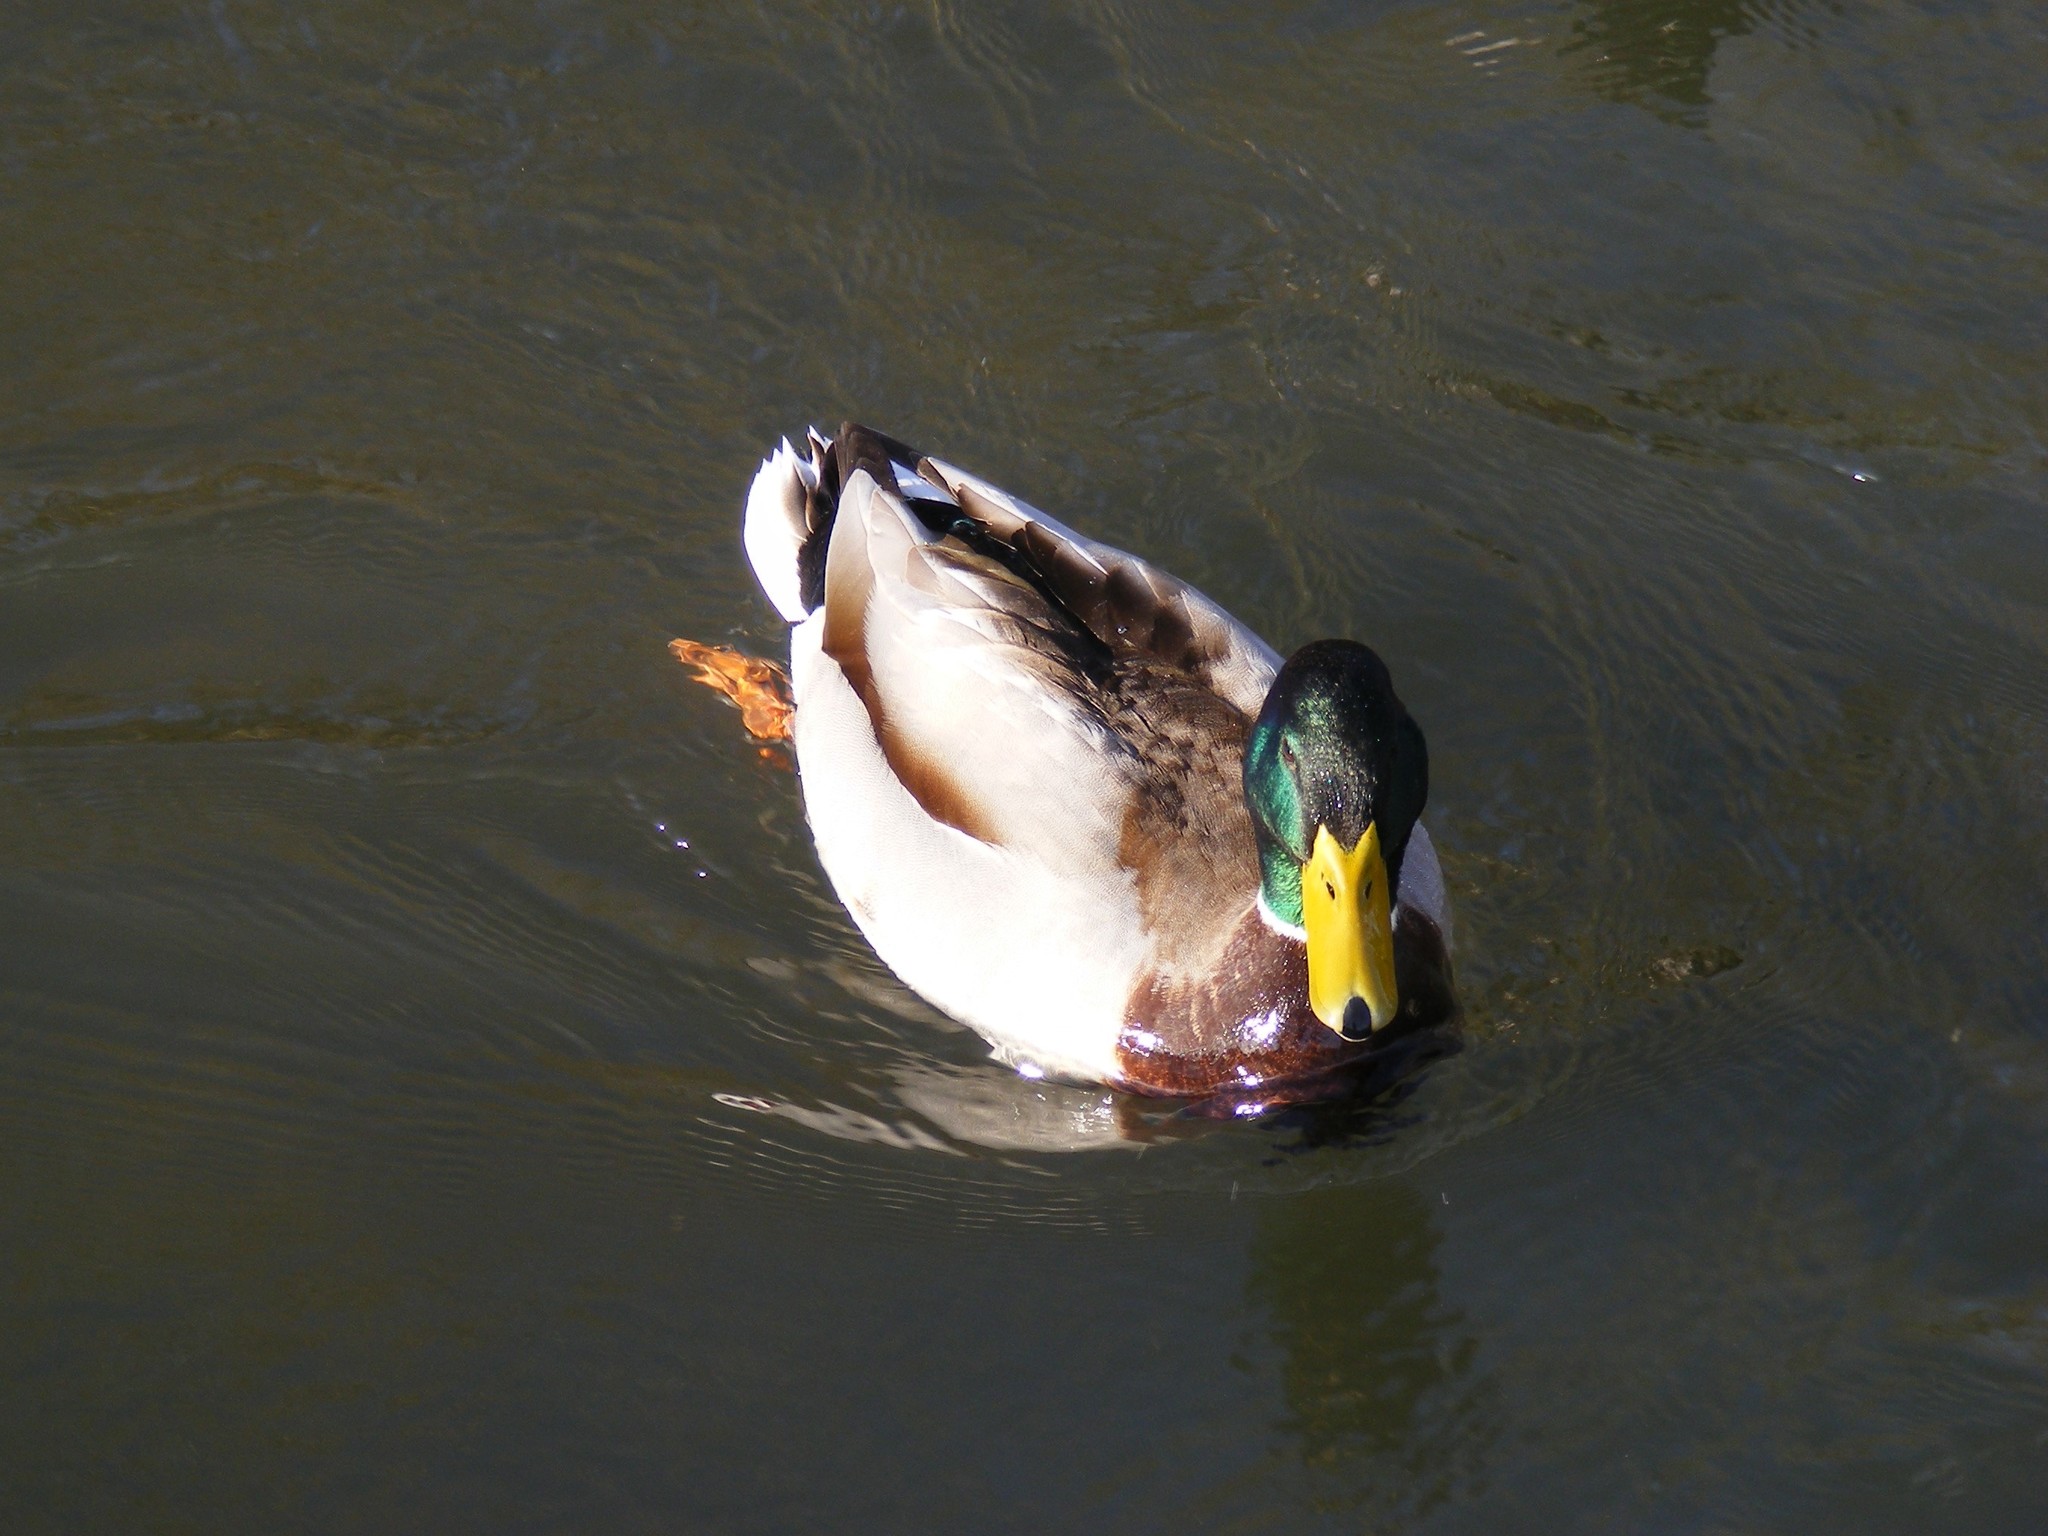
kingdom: Animalia
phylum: Chordata
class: Aves
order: Anseriformes
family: Anatidae
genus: Anas
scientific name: Anas platyrhynchos
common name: Mallard
